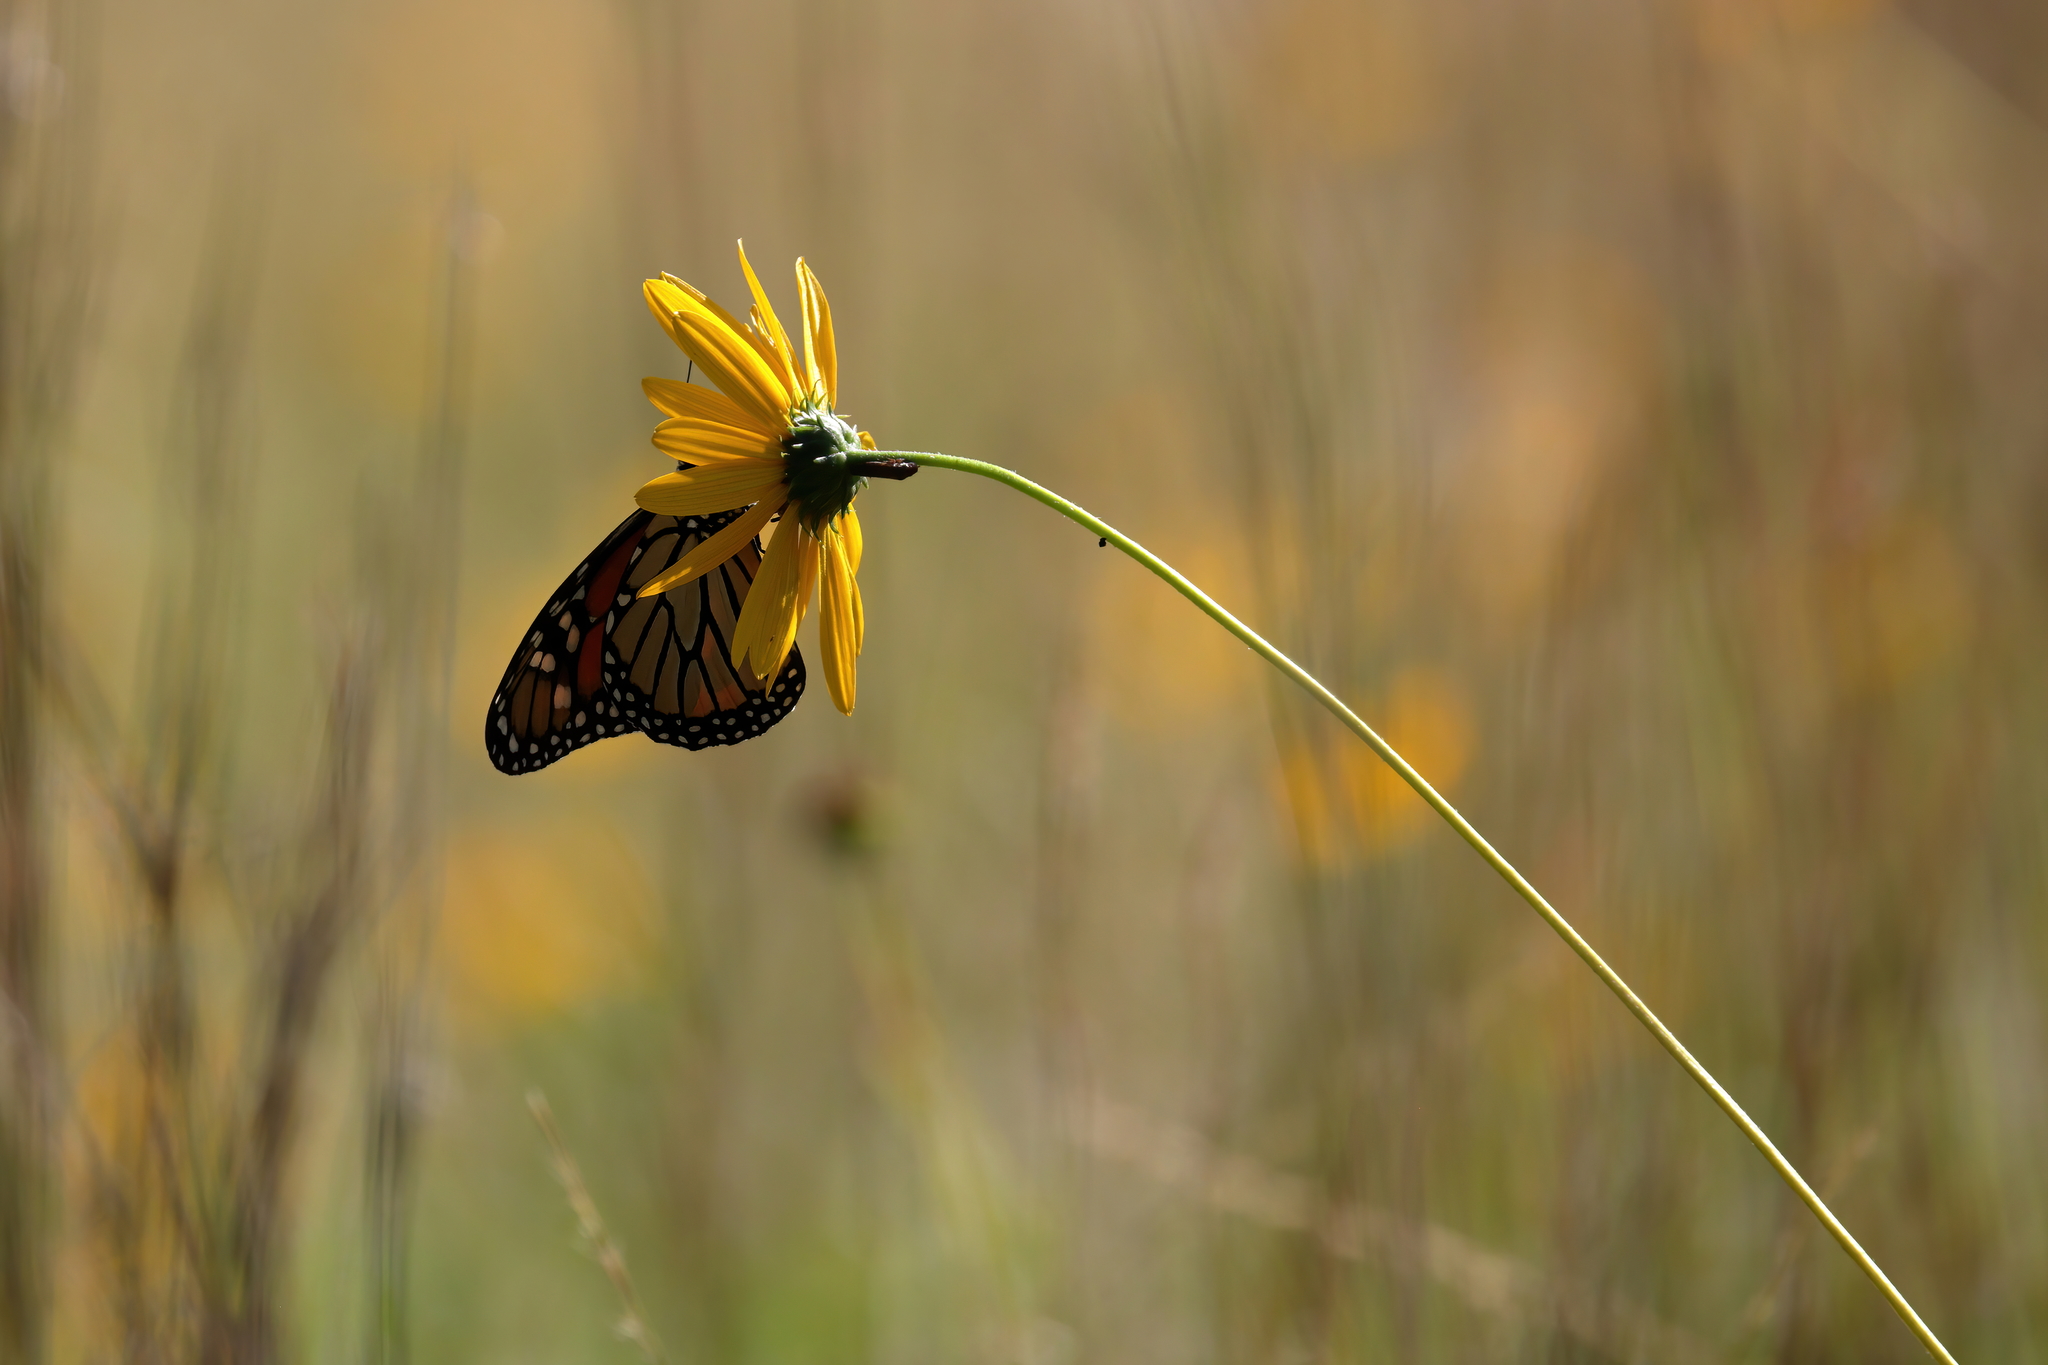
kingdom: Animalia
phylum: Arthropoda
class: Insecta
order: Lepidoptera
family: Nymphalidae
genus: Danaus
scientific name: Danaus plexippus
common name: Monarch
